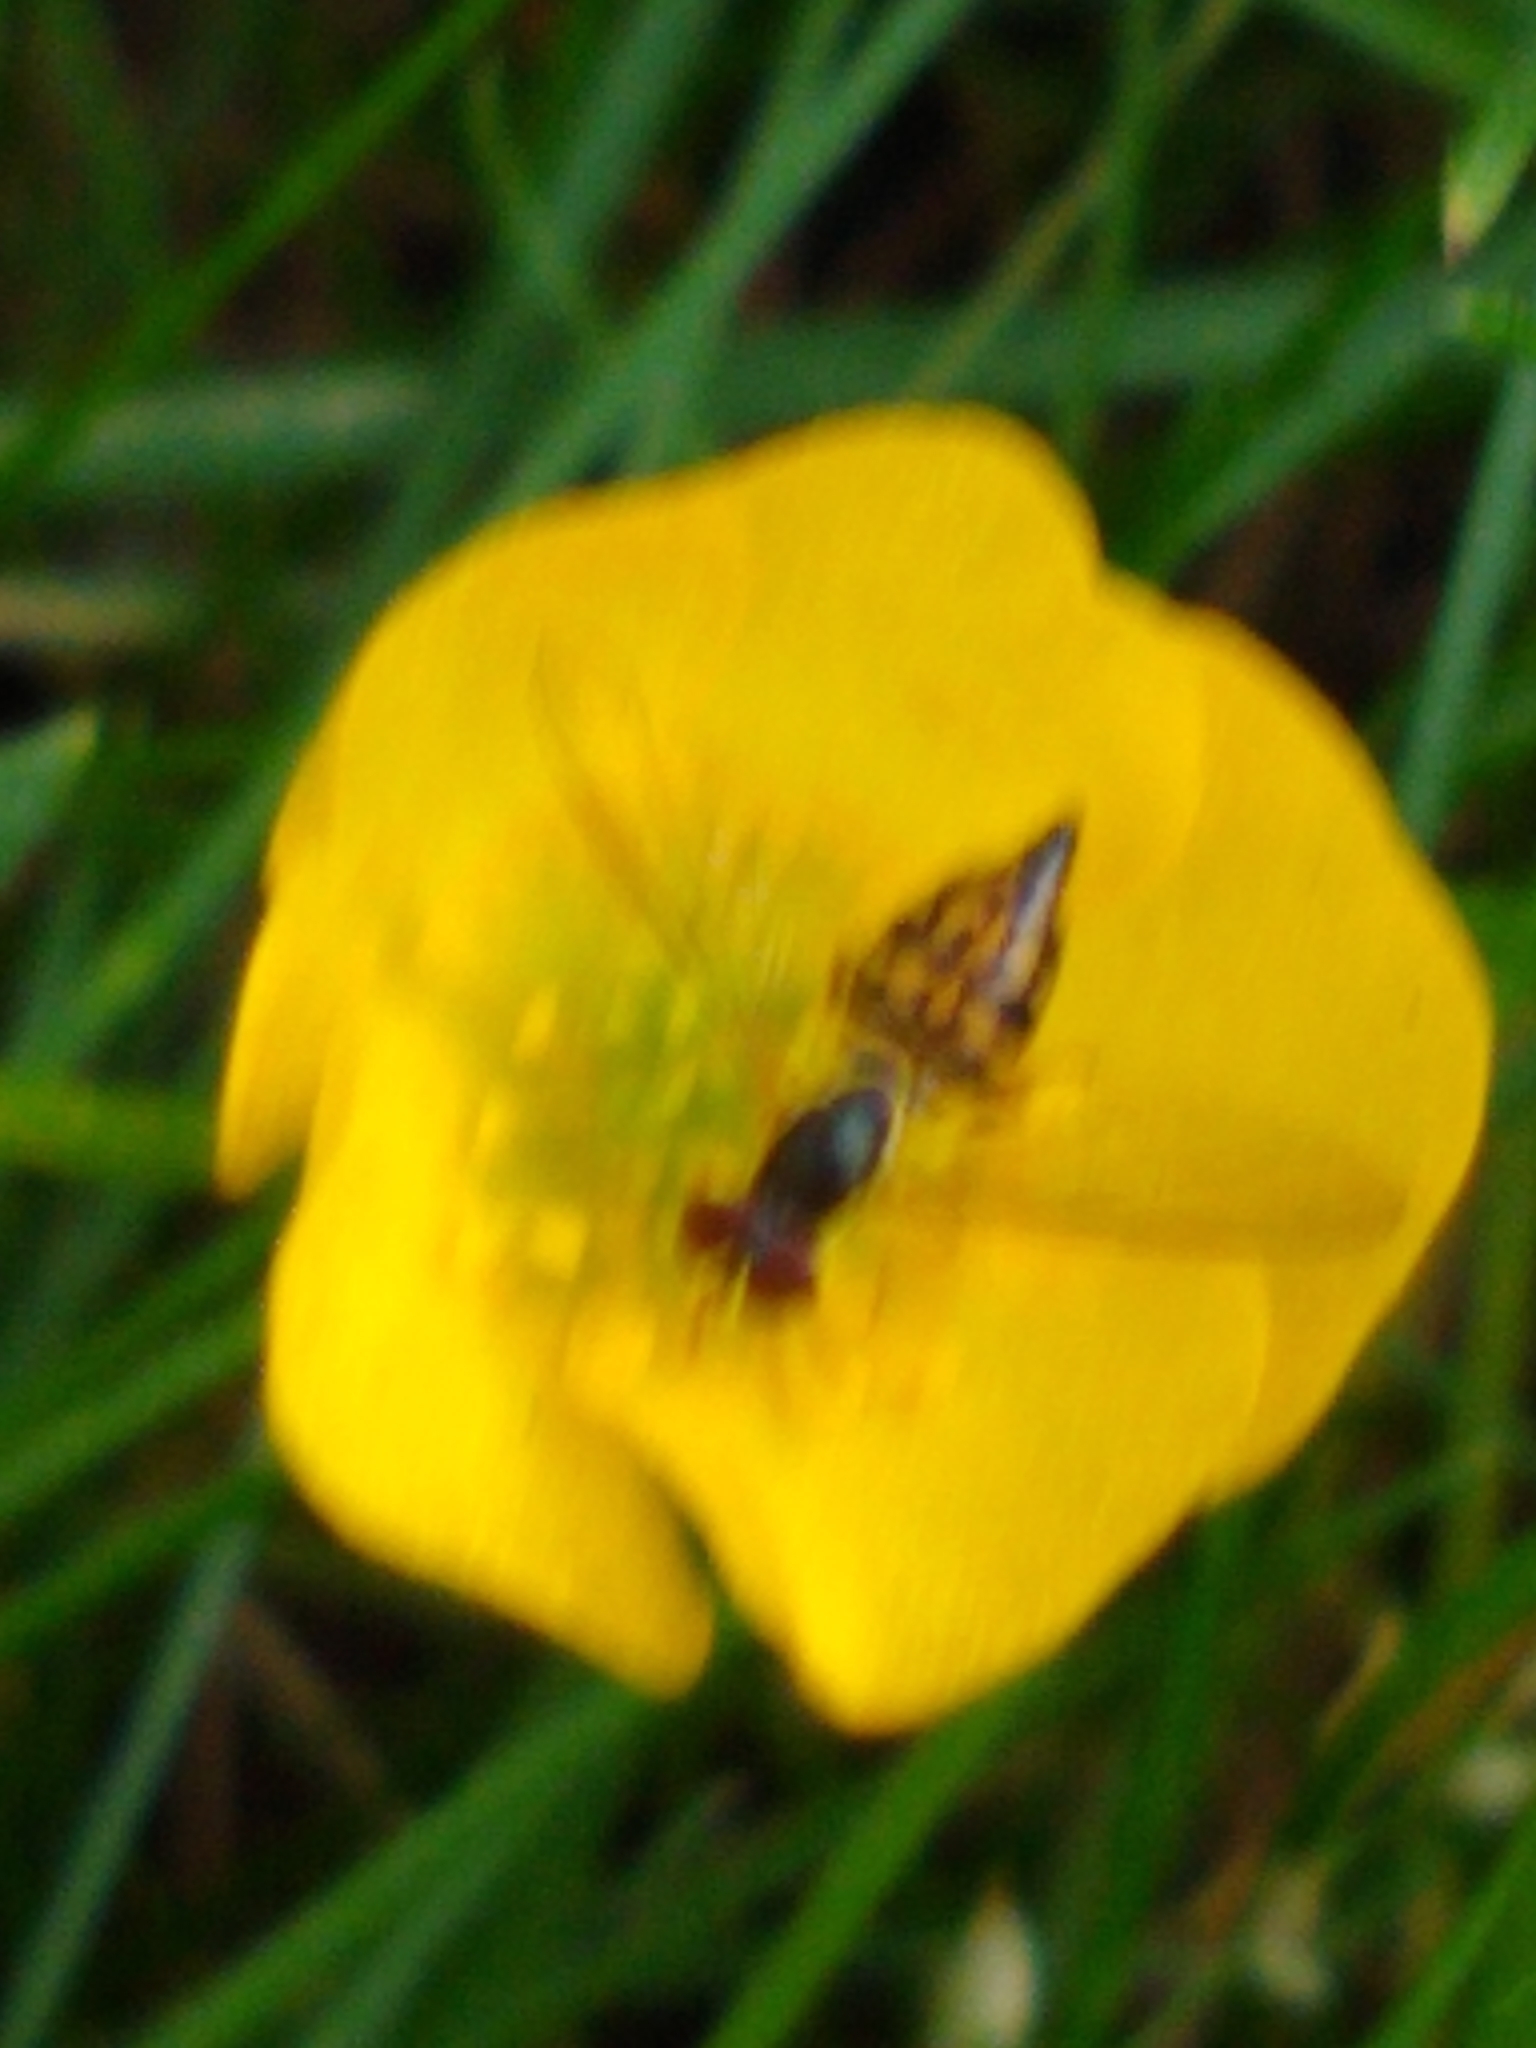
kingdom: Animalia
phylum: Arthropoda
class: Insecta
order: Diptera
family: Syrphidae
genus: Toxomerus
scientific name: Toxomerus geminatus
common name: Eastern calligrapher
